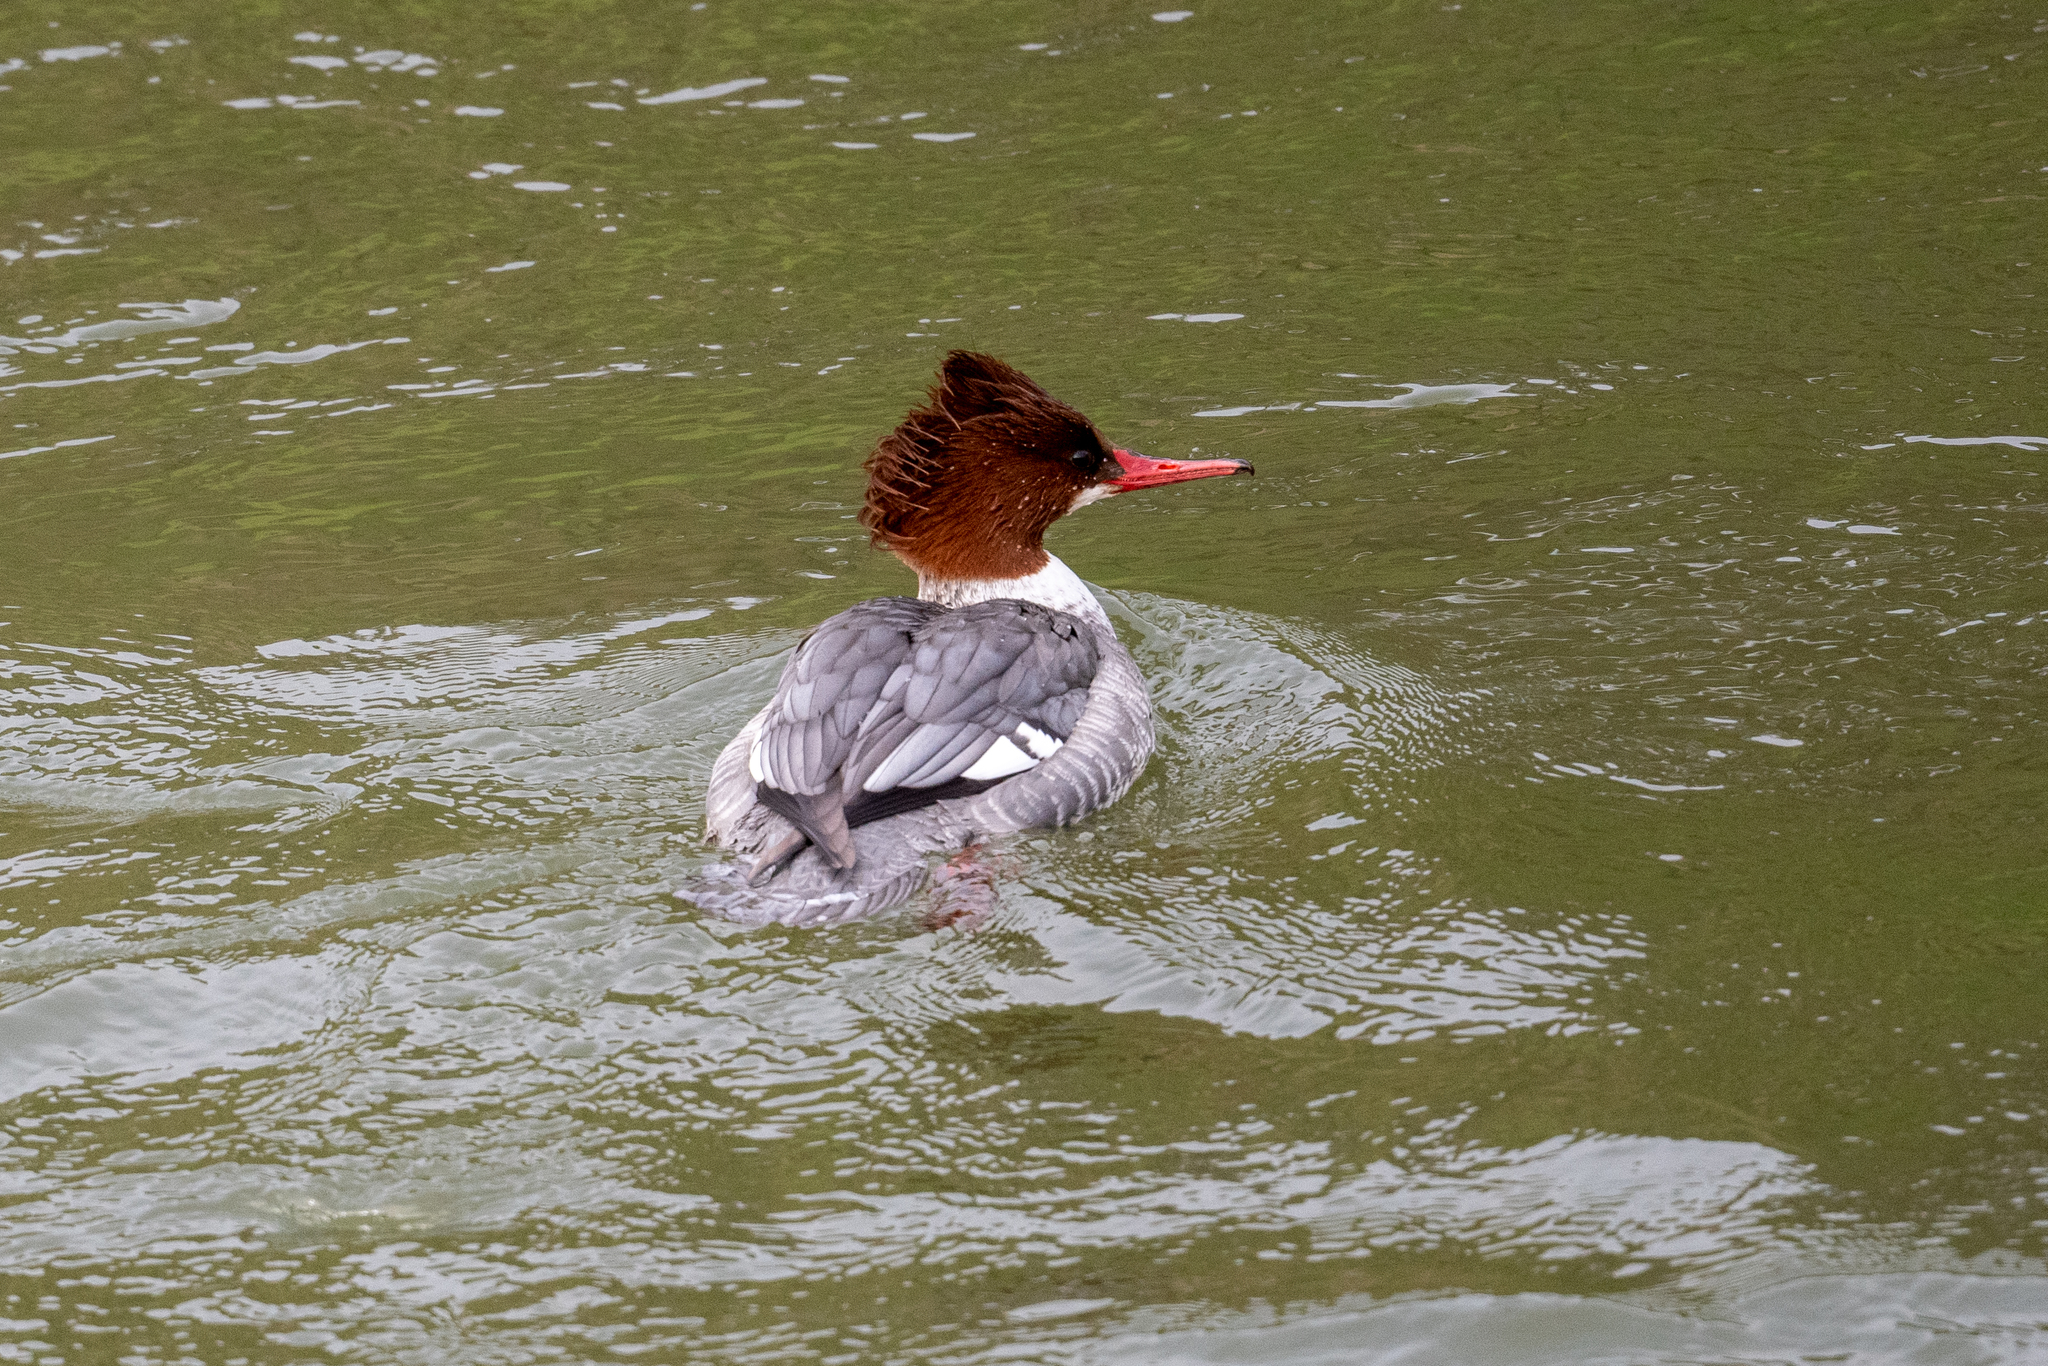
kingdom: Animalia
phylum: Chordata
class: Aves
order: Anseriformes
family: Anatidae
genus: Mergus
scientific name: Mergus merganser
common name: Common merganser
